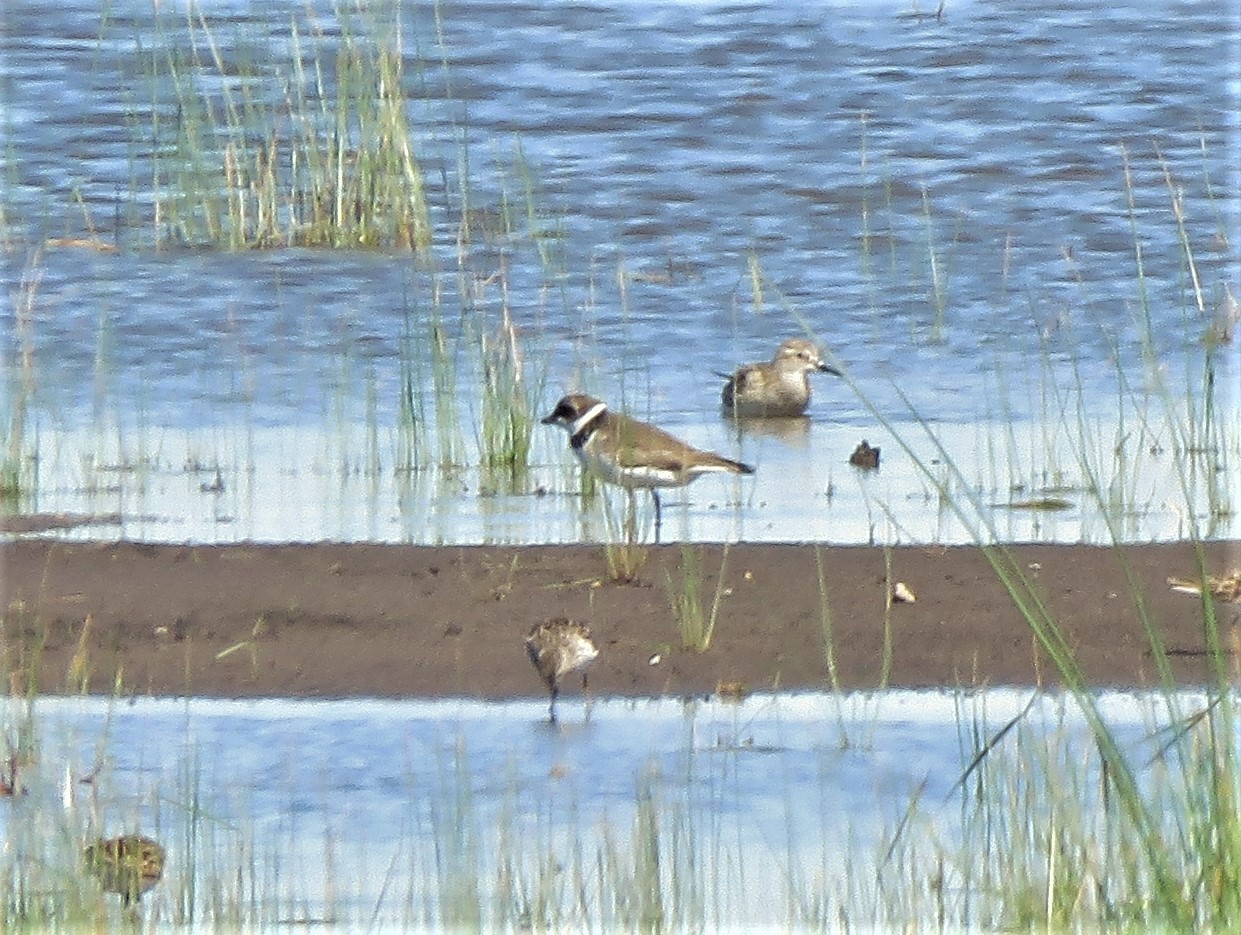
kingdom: Animalia
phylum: Chordata
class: Aves
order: Charadriiformes
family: Charadriidae
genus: Charadrius
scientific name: Charadrius semipalmatus
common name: Semipalmated plover
